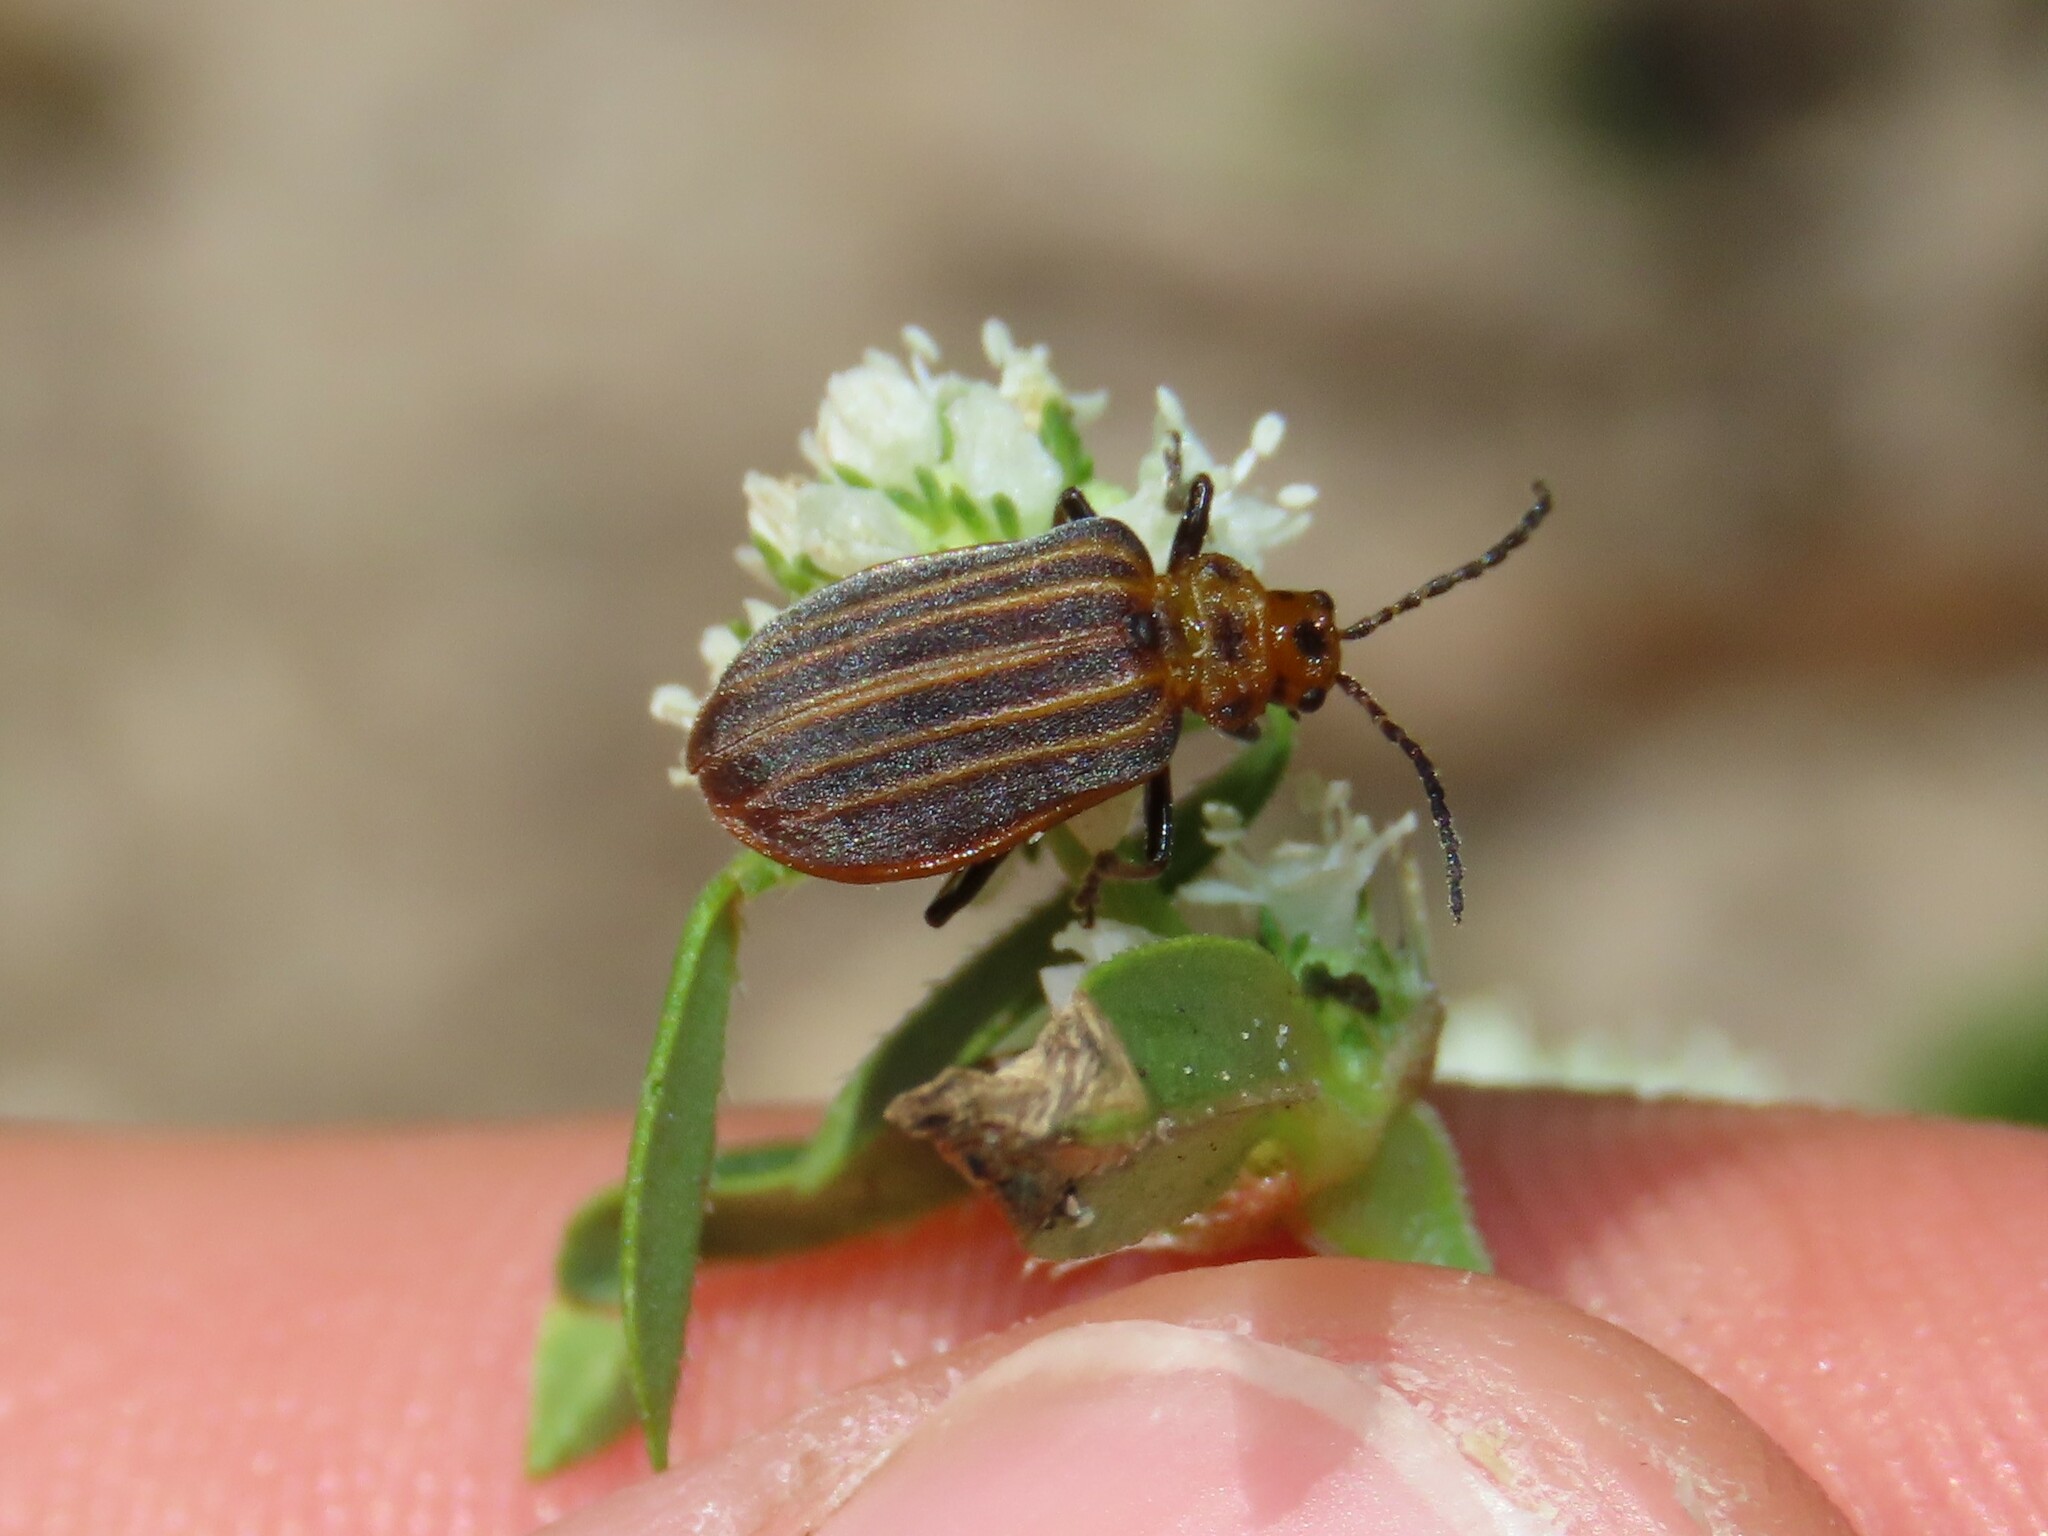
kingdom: Animalia
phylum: Arthropoda
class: Insecta
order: Coleoptera
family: Chrysomelidae
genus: Neolochmaea
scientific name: Neolochmaea dilatipennis
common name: Skeletonizing leaf beetle
